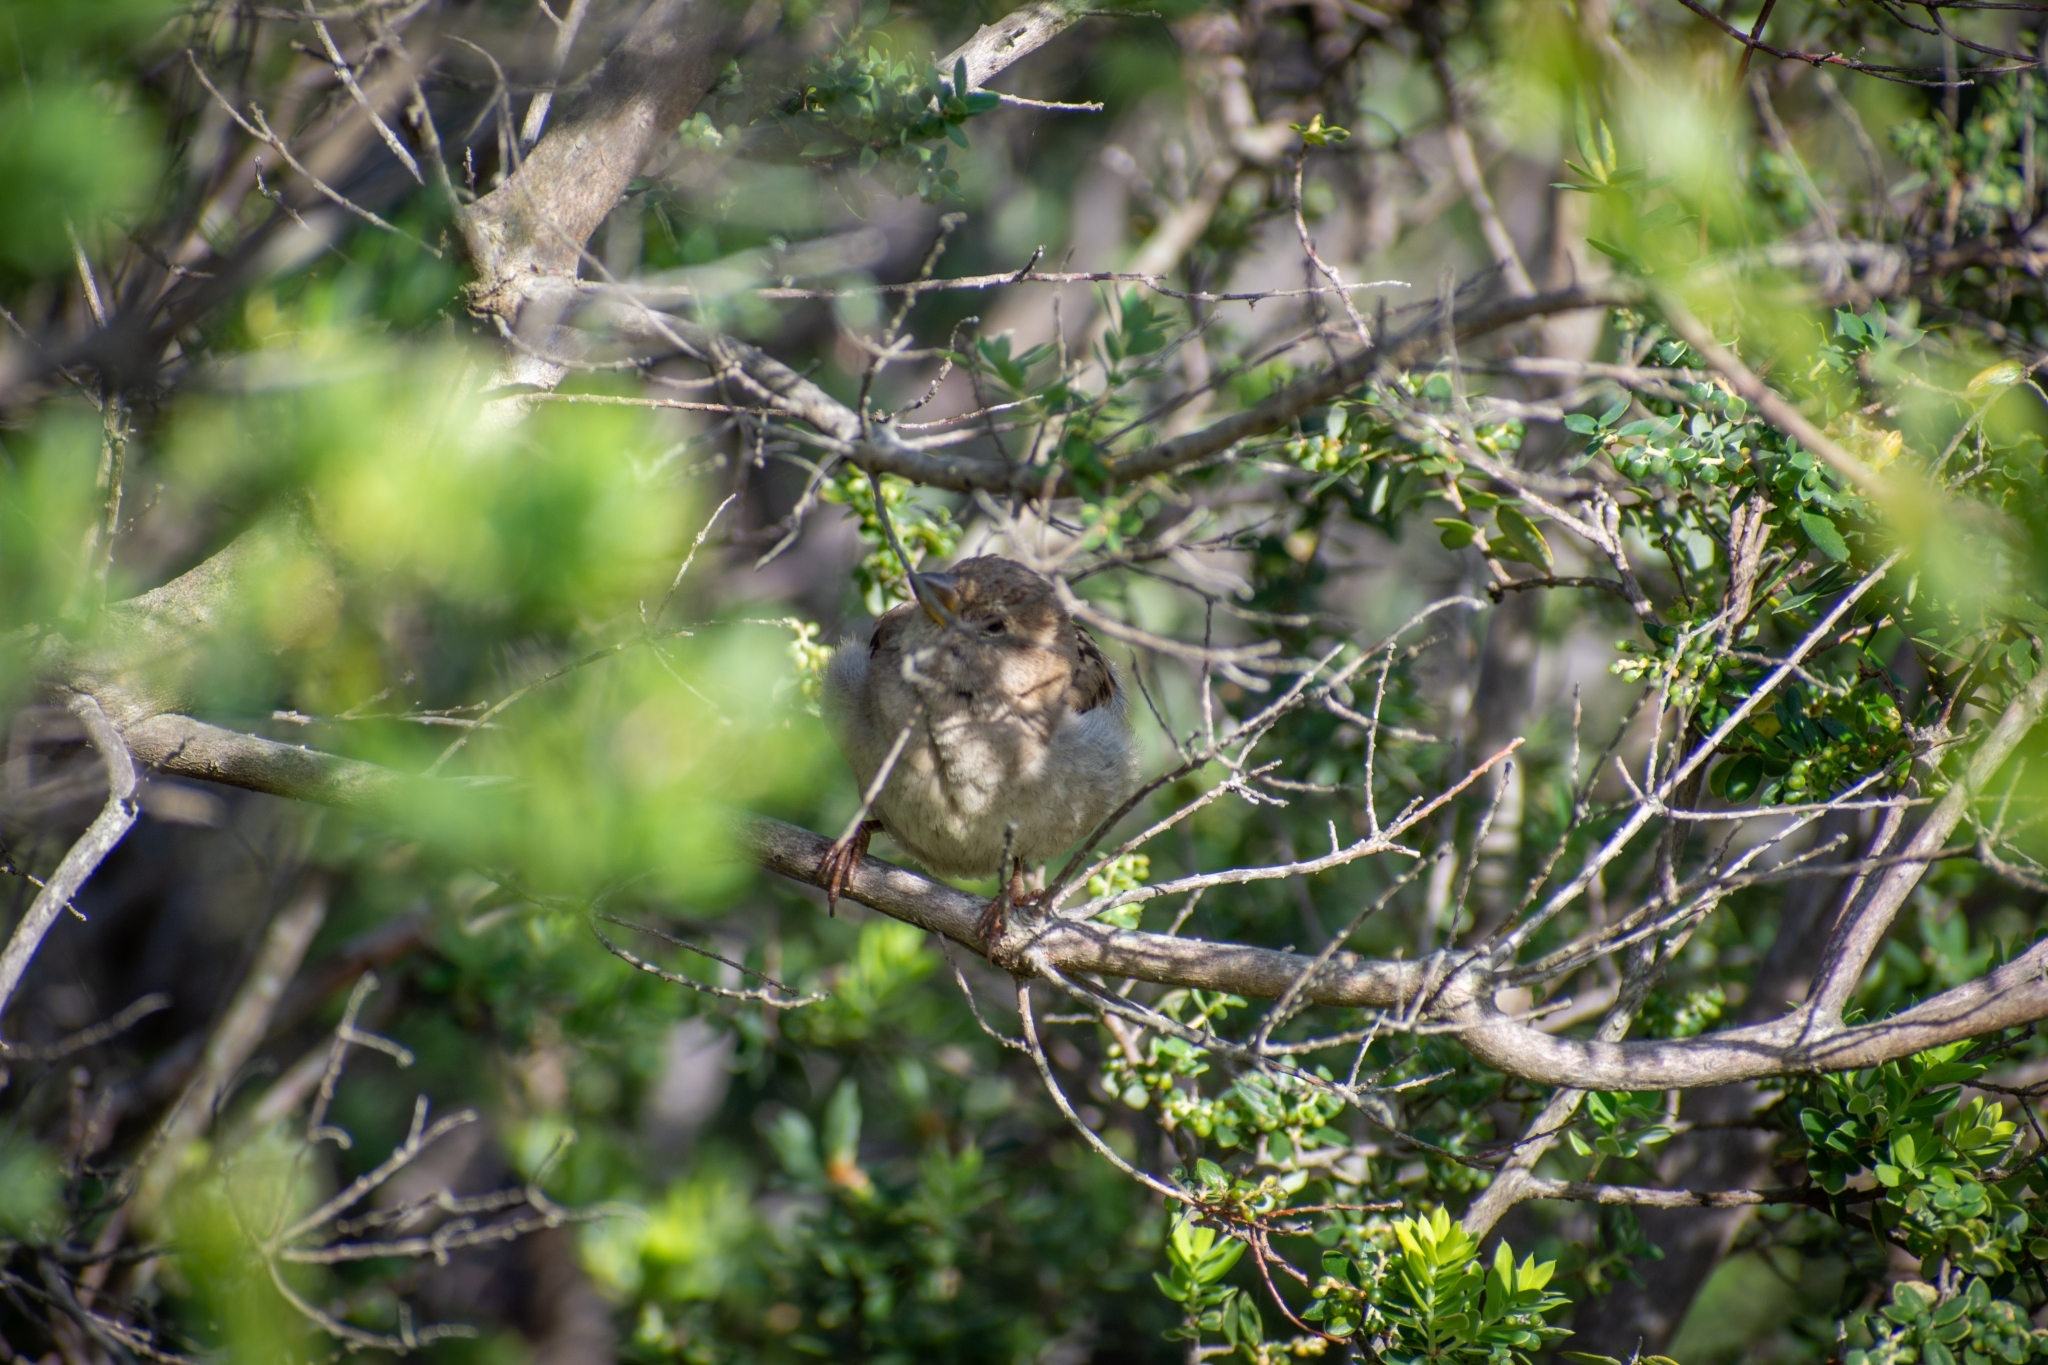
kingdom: Animalia
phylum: Chordata
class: Aves
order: Passeriformes
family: Passeridae
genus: Passer
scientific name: Passer domesticus
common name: House sparrow
